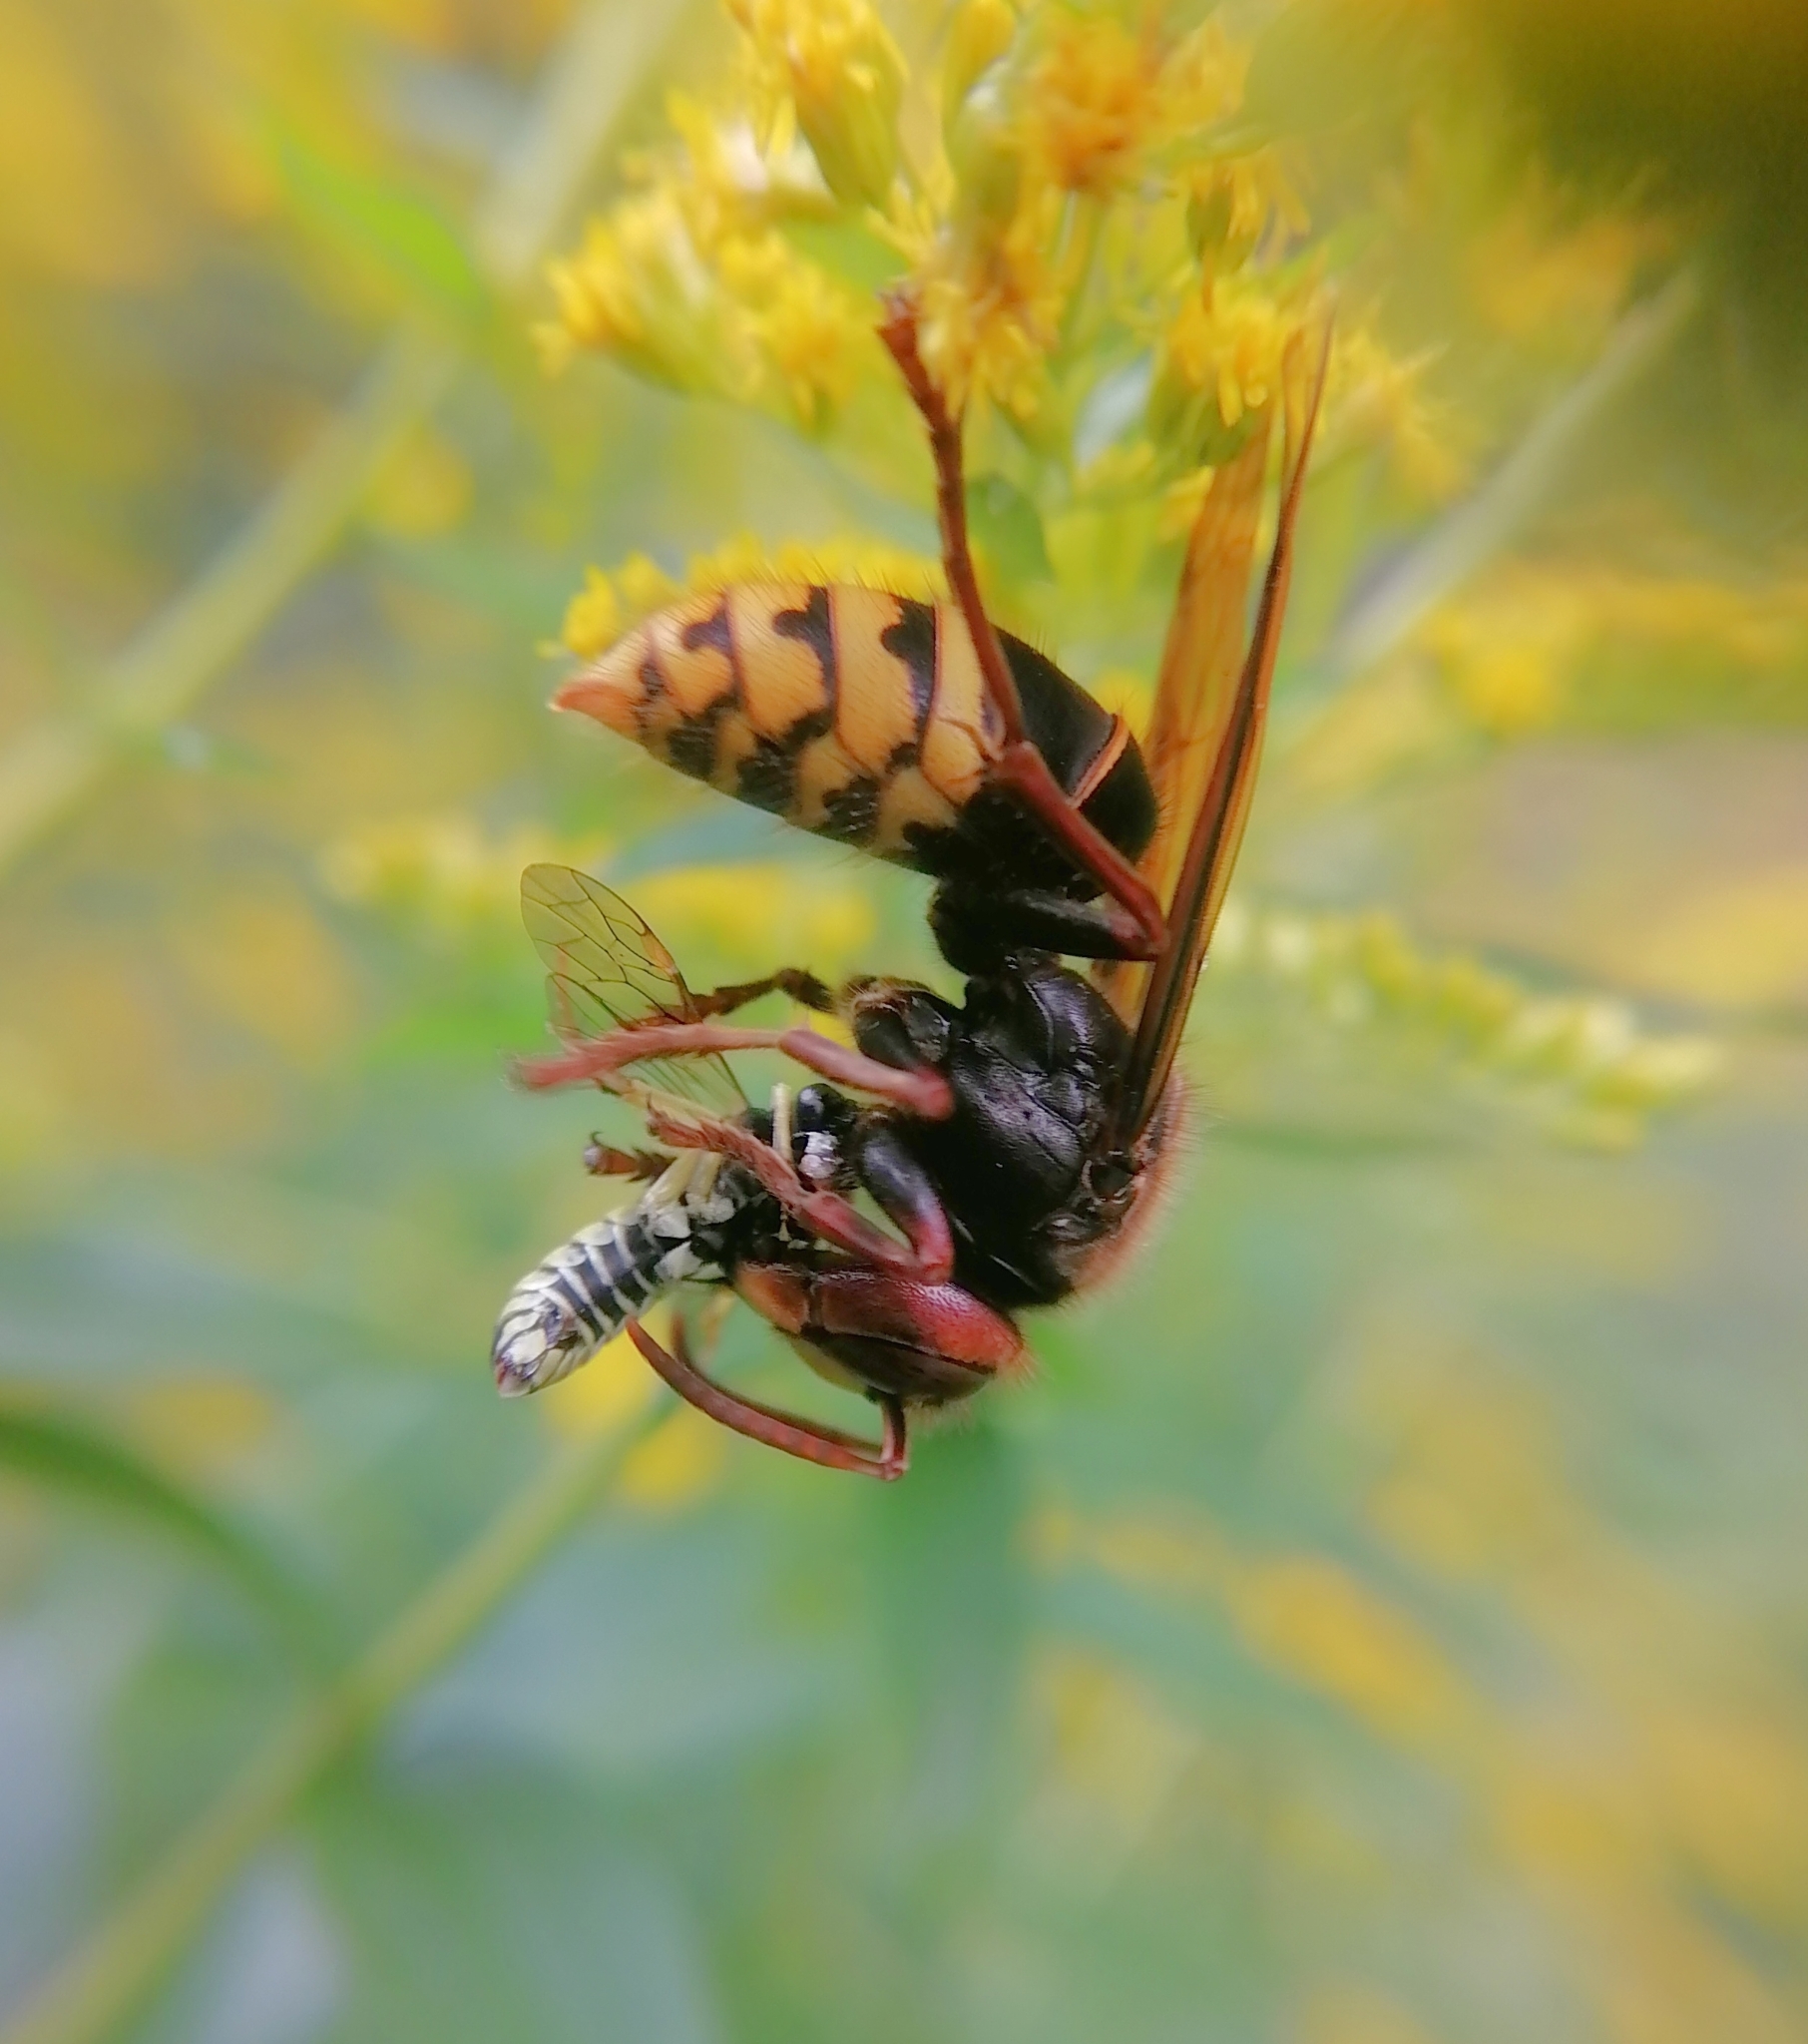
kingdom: Animalia
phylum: Arthropoda
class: Insecta
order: Hymenoptera
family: Vespidae
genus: Vespa
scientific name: Vespa crabro
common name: Hornet
